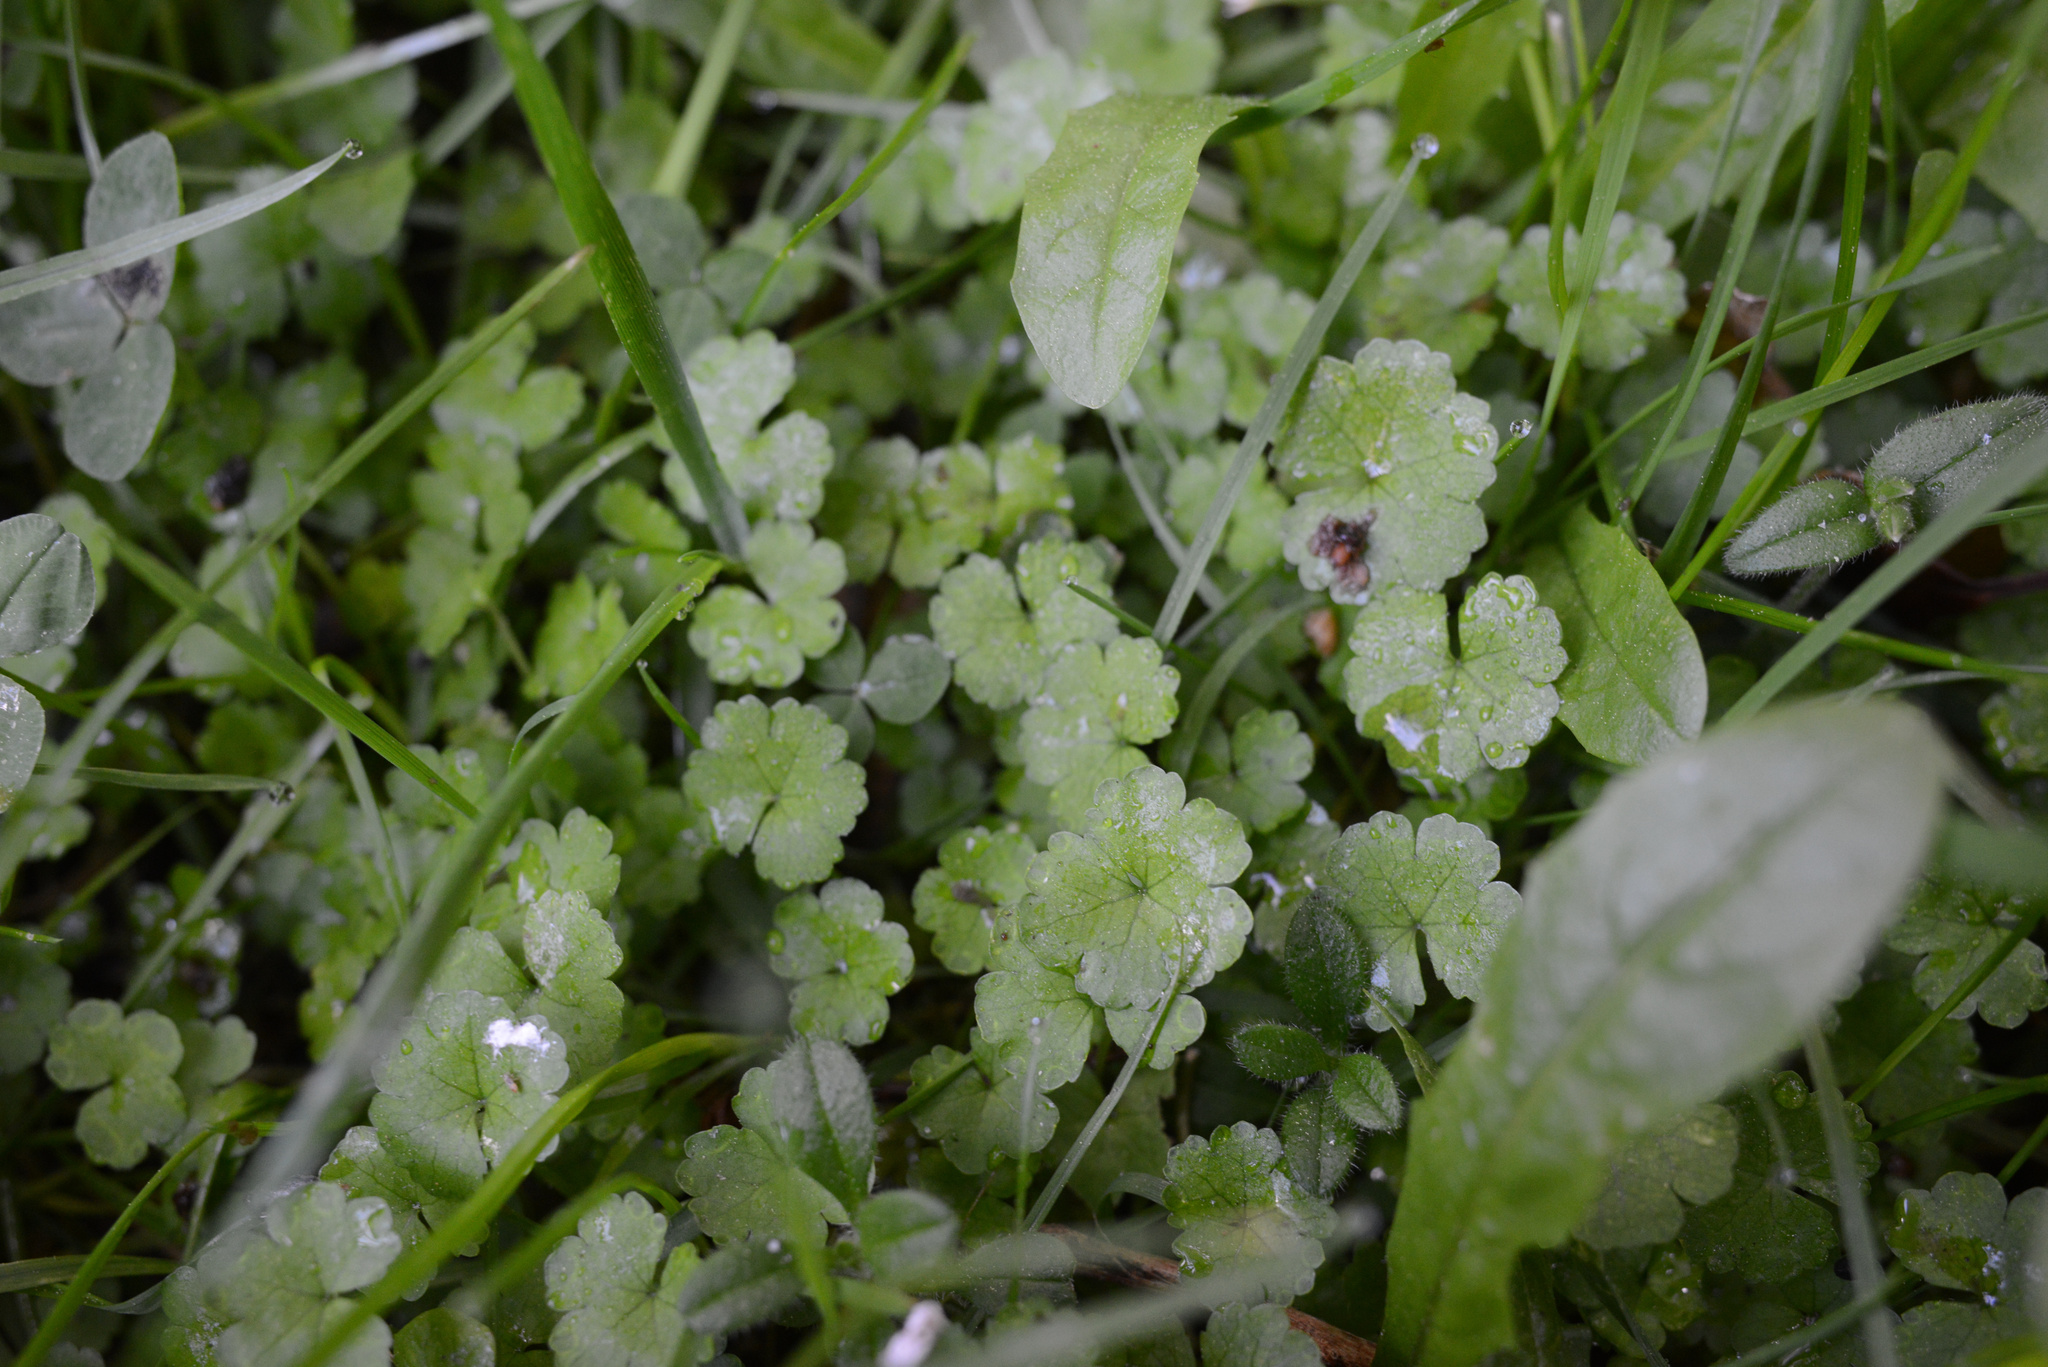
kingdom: Plantae
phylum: Tracheophyta
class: Magnoliopsida
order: Apiales
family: Araliaceae
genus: Hydrocotyle
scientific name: Hydrocotyle heteromeria
